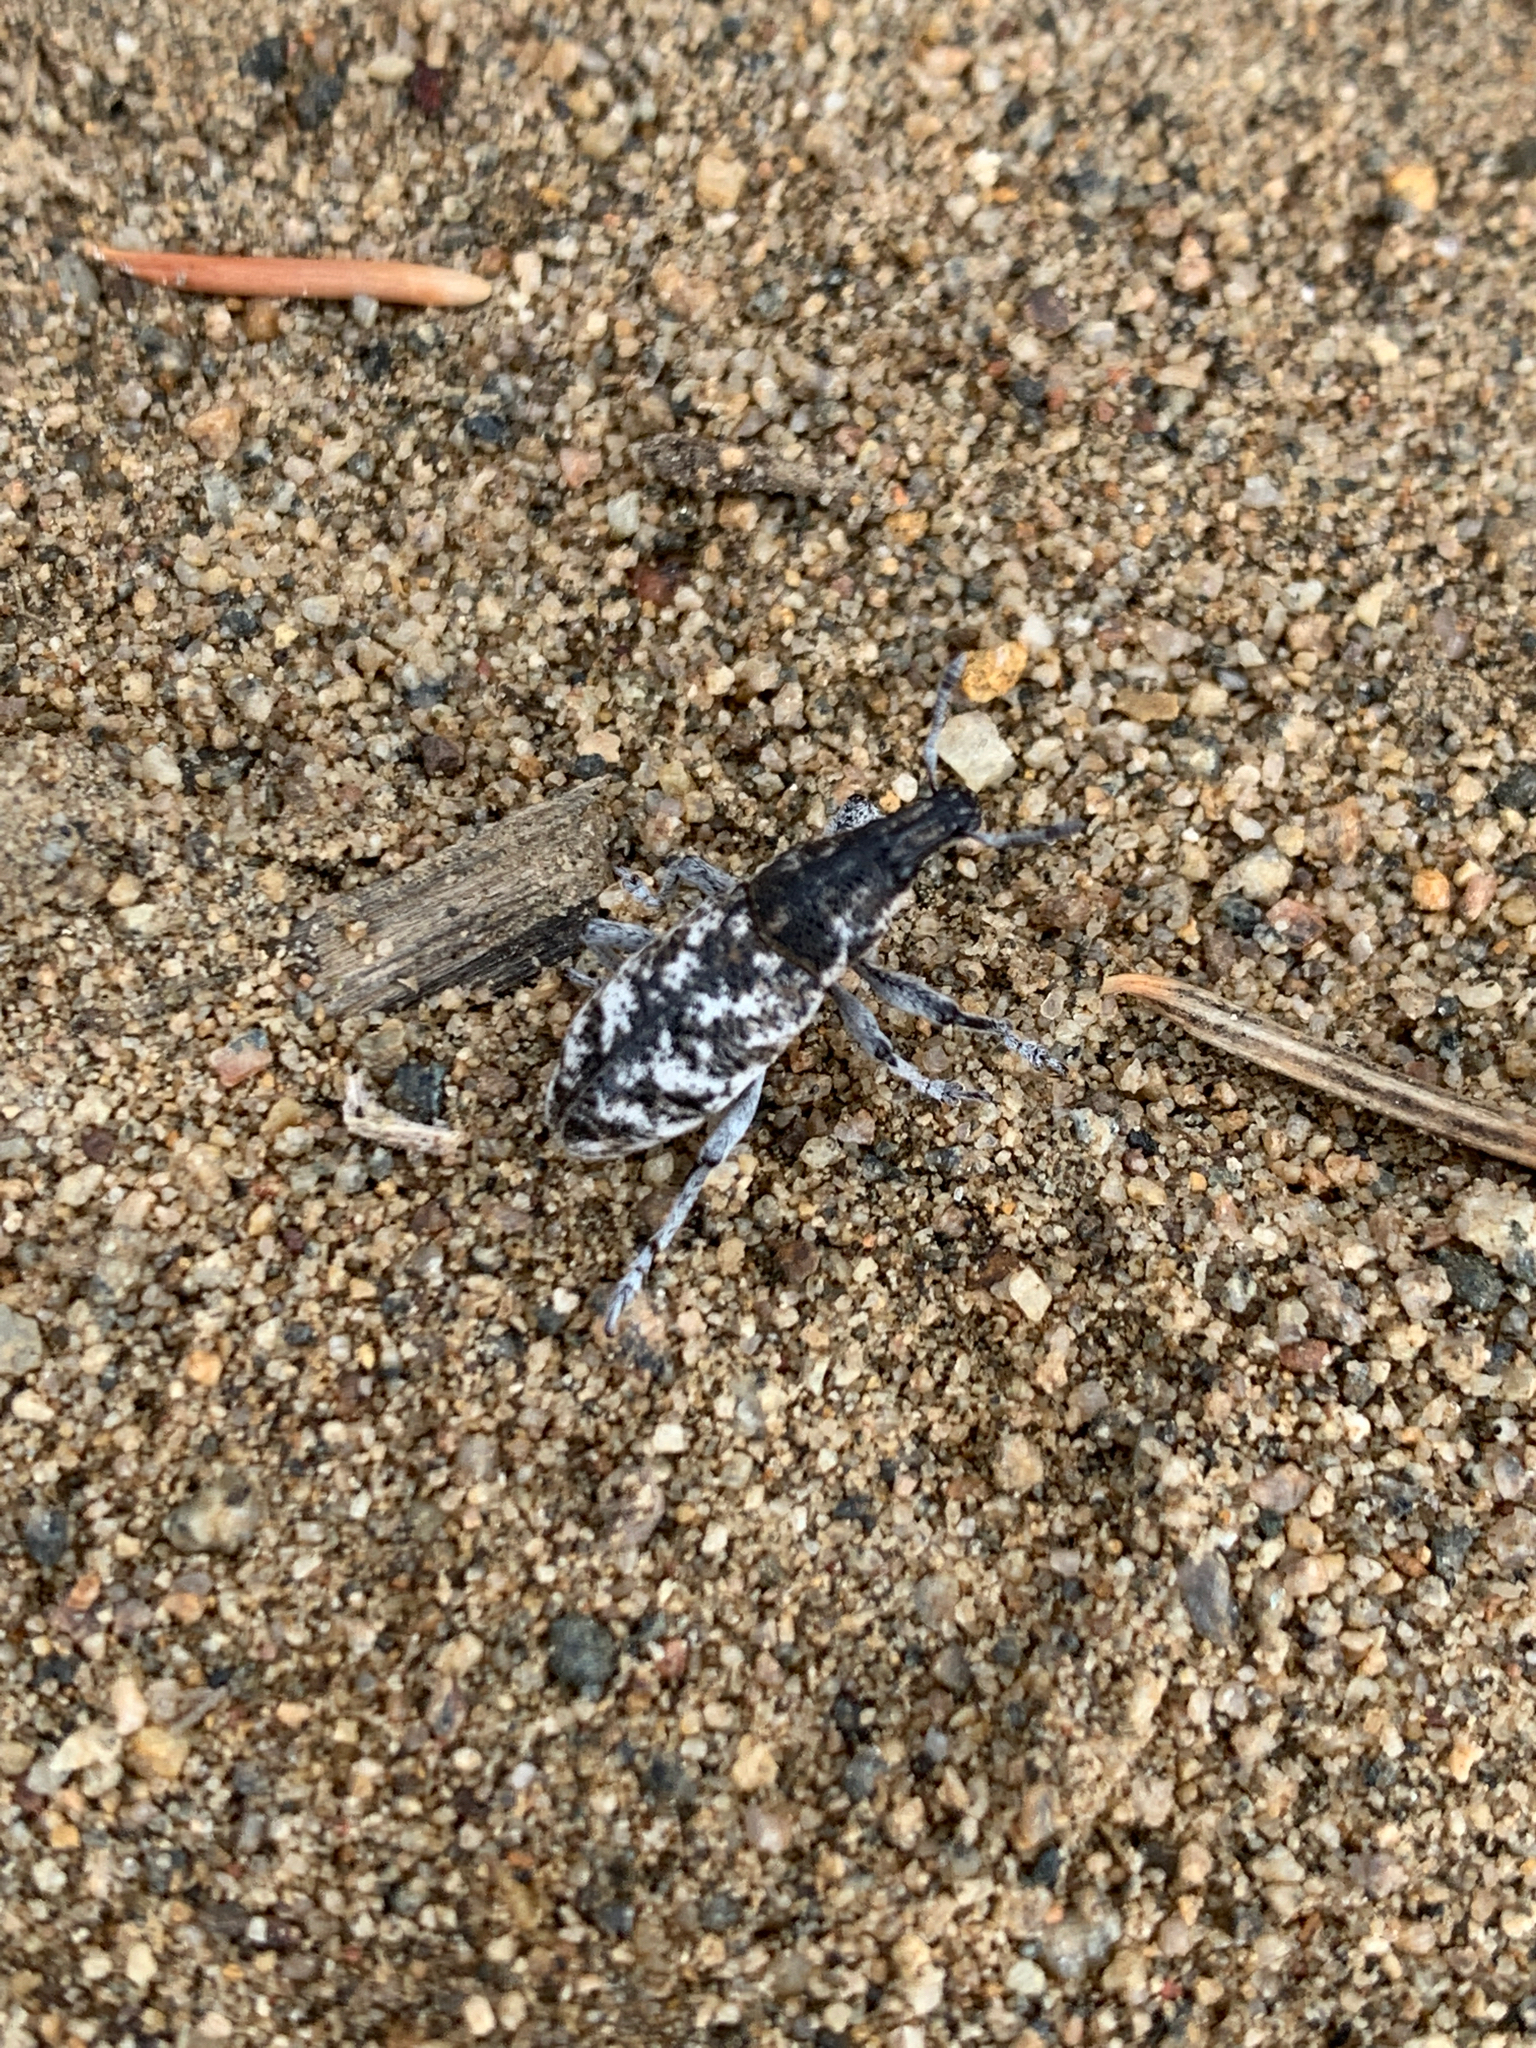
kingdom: Animalia
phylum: Arthropoda
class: Insecta
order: Coleoptera
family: Curculionidae
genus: Cleonus
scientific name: Cleonus achates
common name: Root weevil
